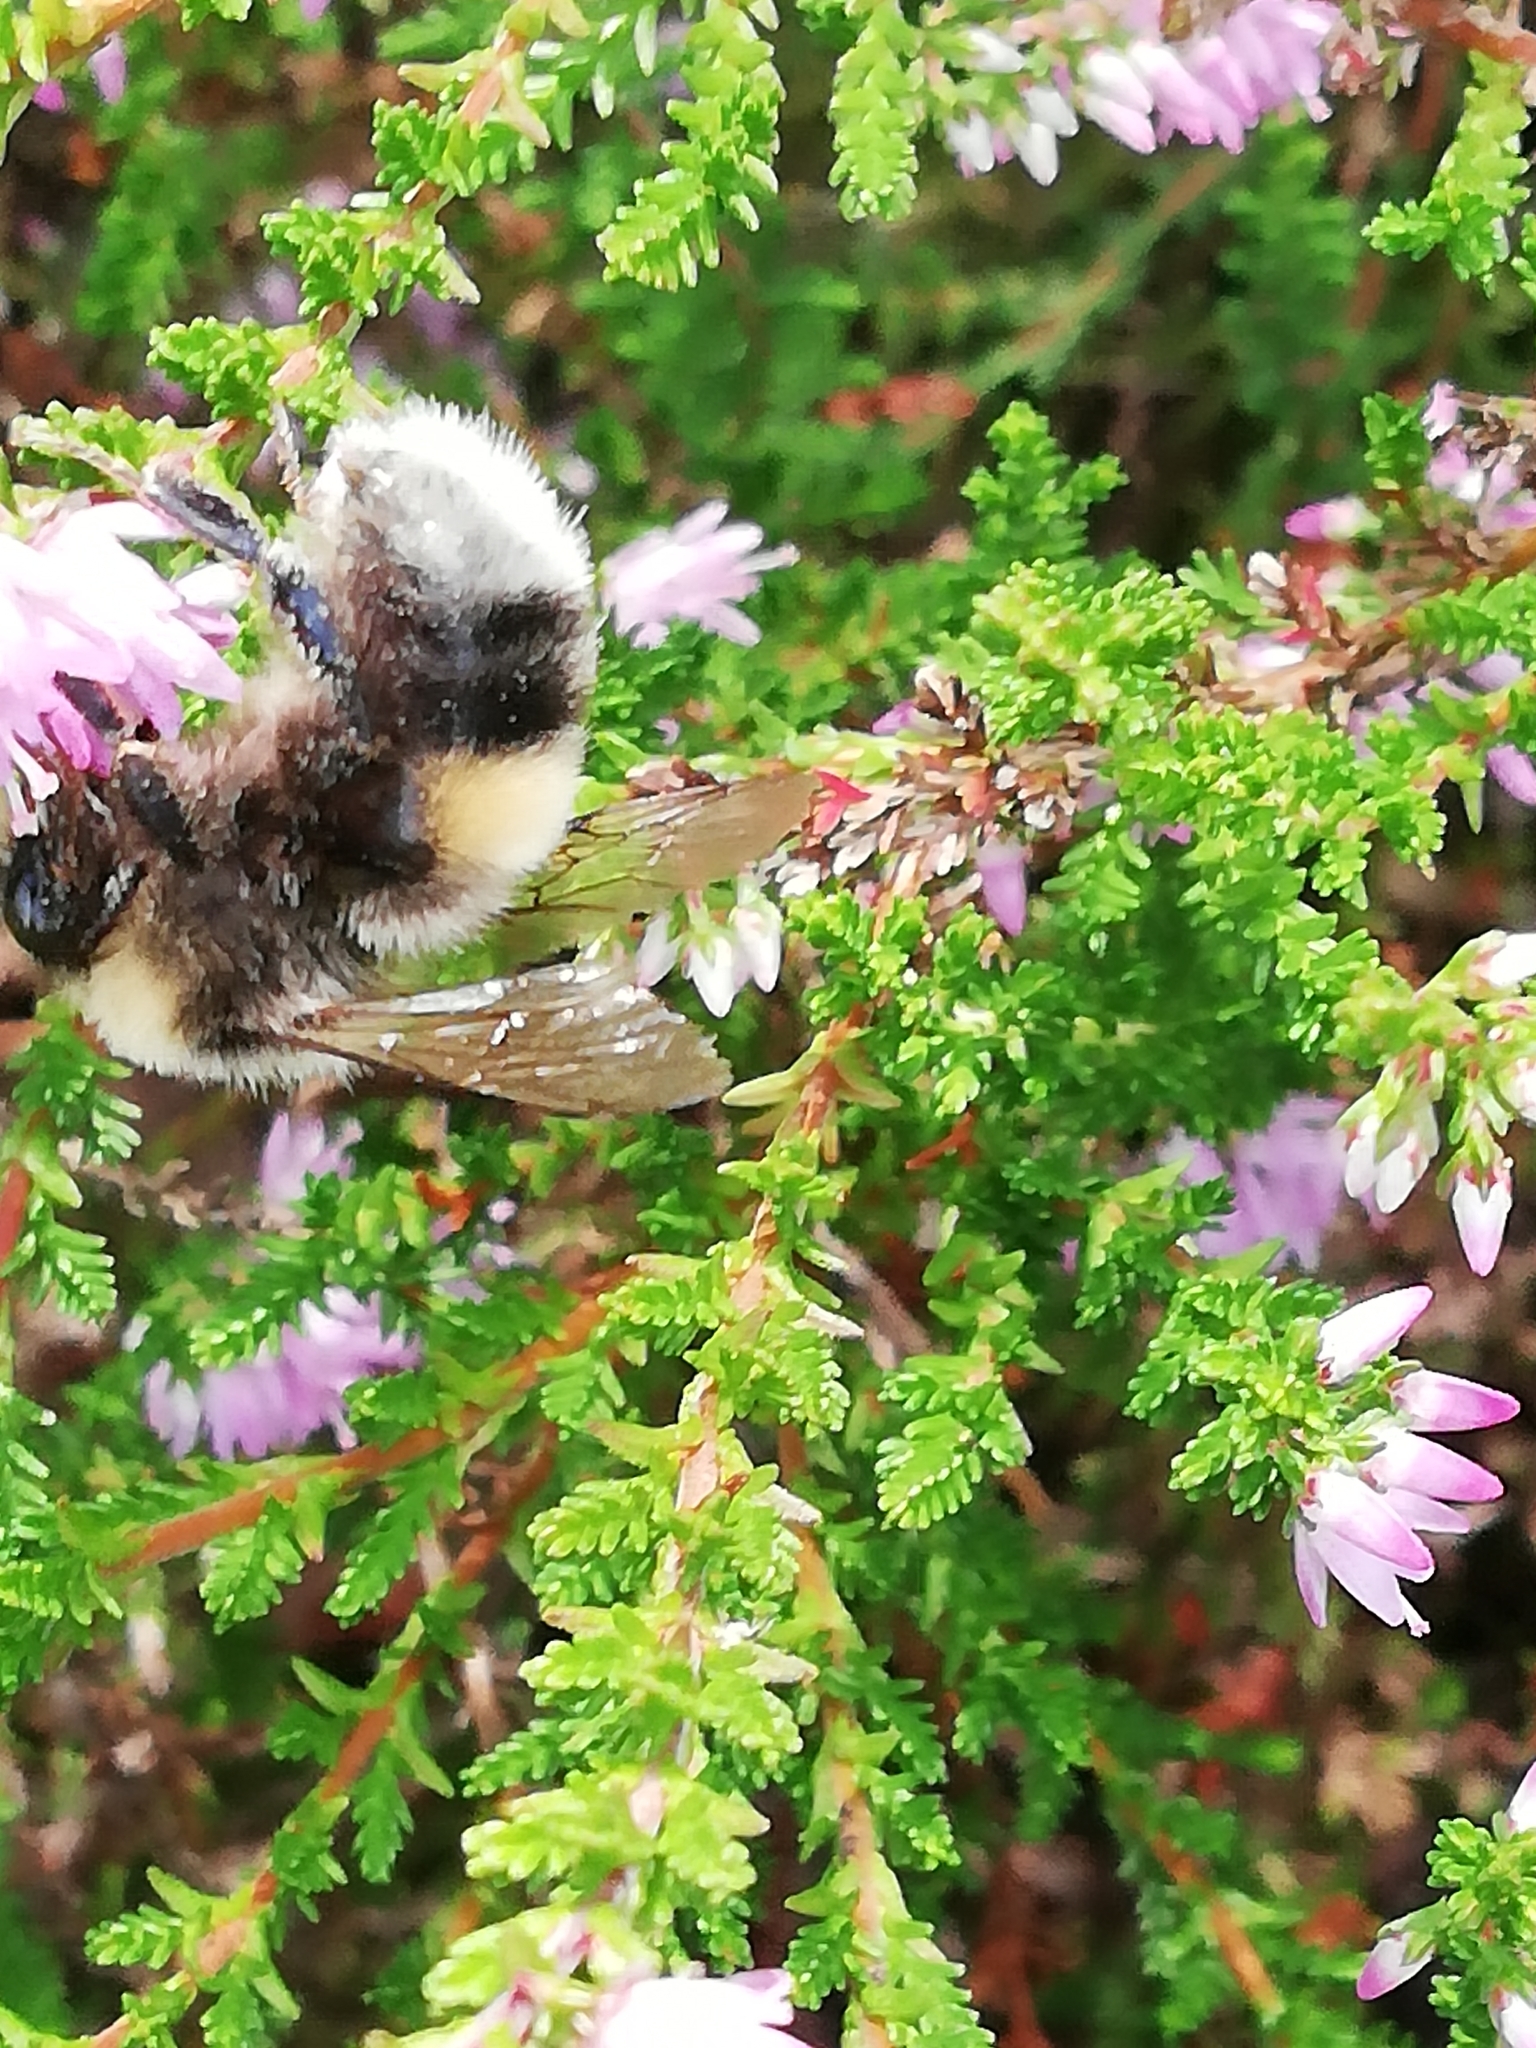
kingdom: Animalia
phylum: Arthropoda
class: Insecta
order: Hymenoptera
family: Apidae
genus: Bombus
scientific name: Bombus lucorum
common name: White-tailed bumblebee
